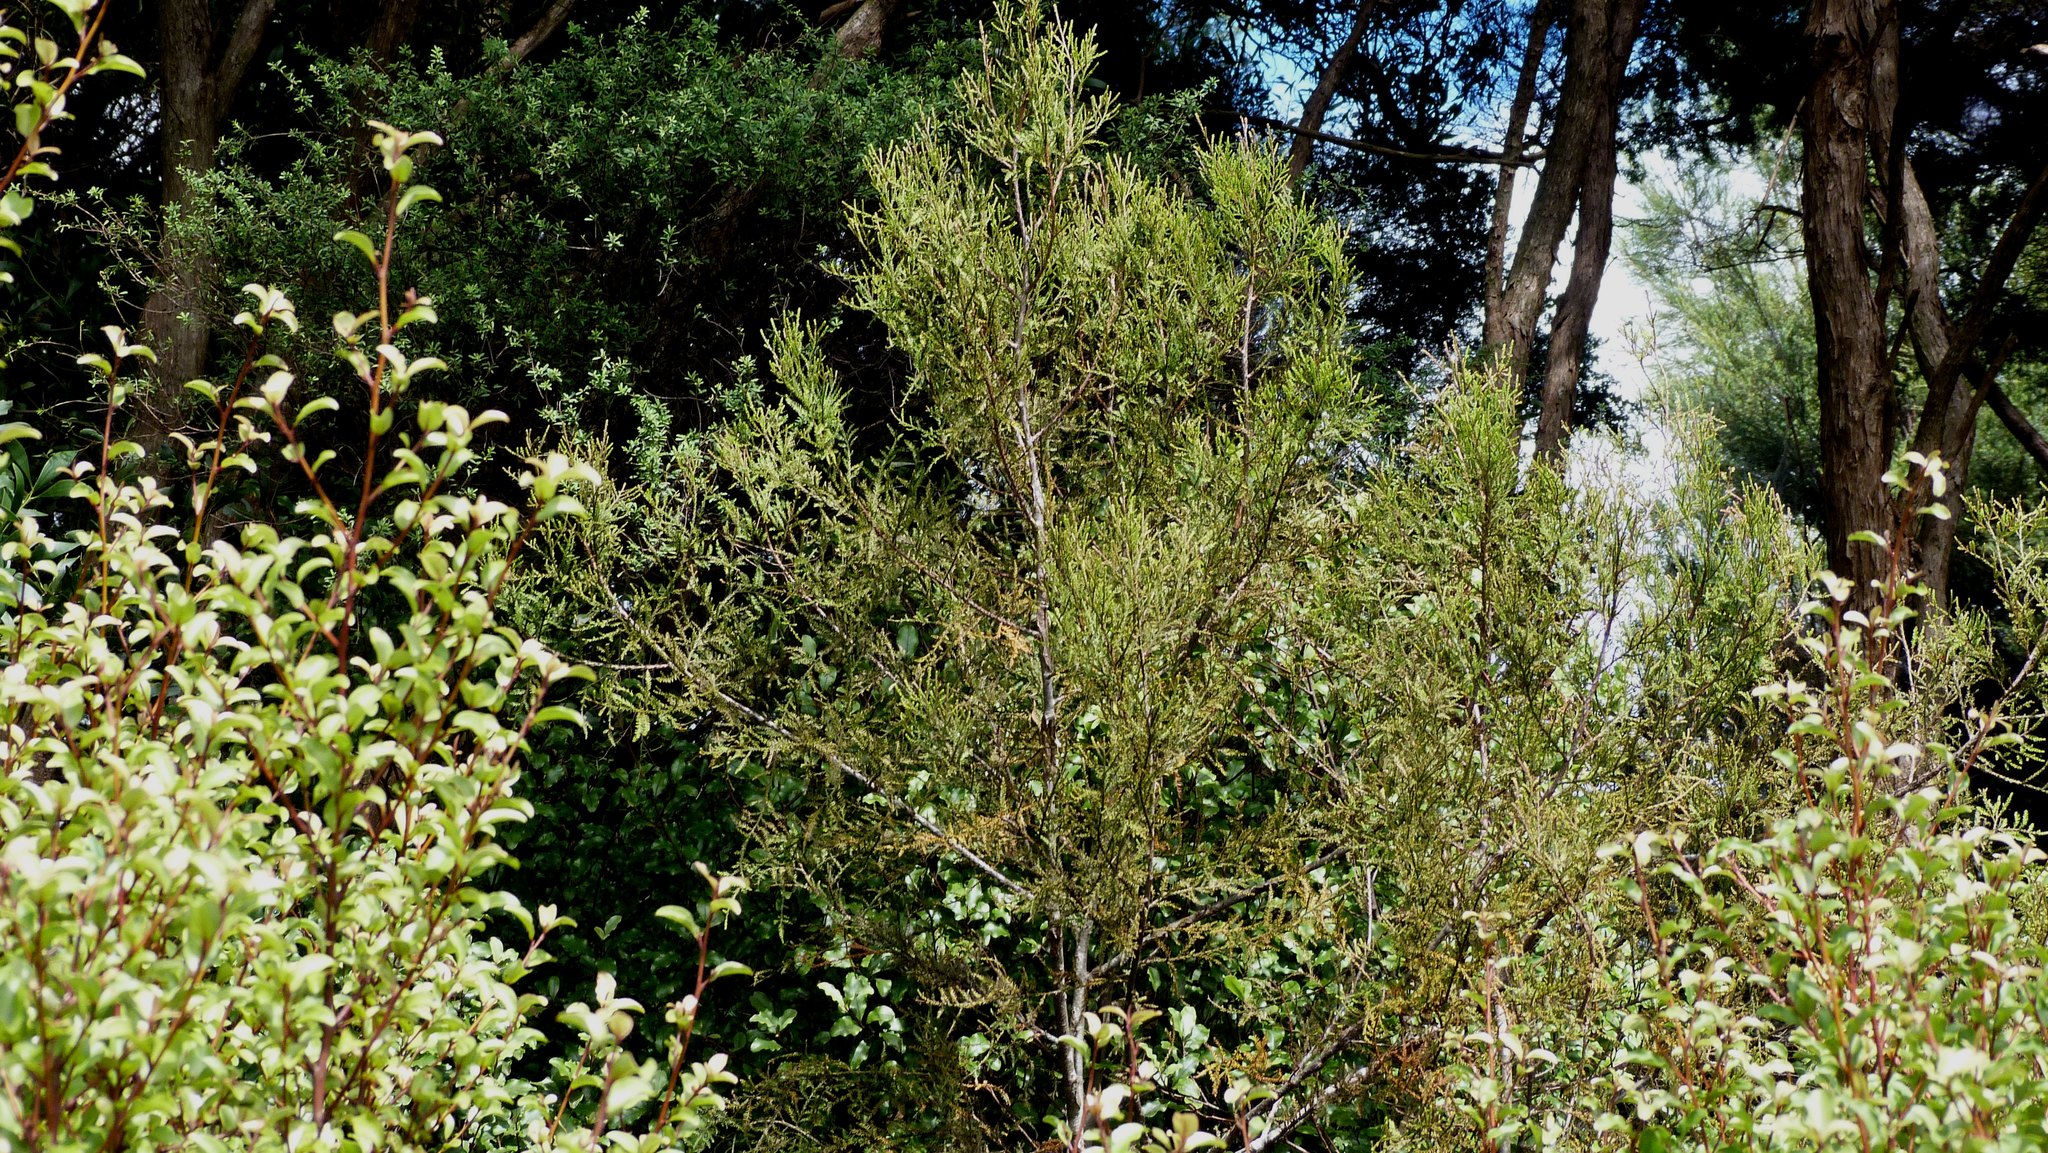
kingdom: Plantae
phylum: Tracheophyta
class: Pinopsida
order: Pinales
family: Podocarpaceae
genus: Dacrycarpus
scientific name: Dacrycarpus dacrydioides
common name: White pine
